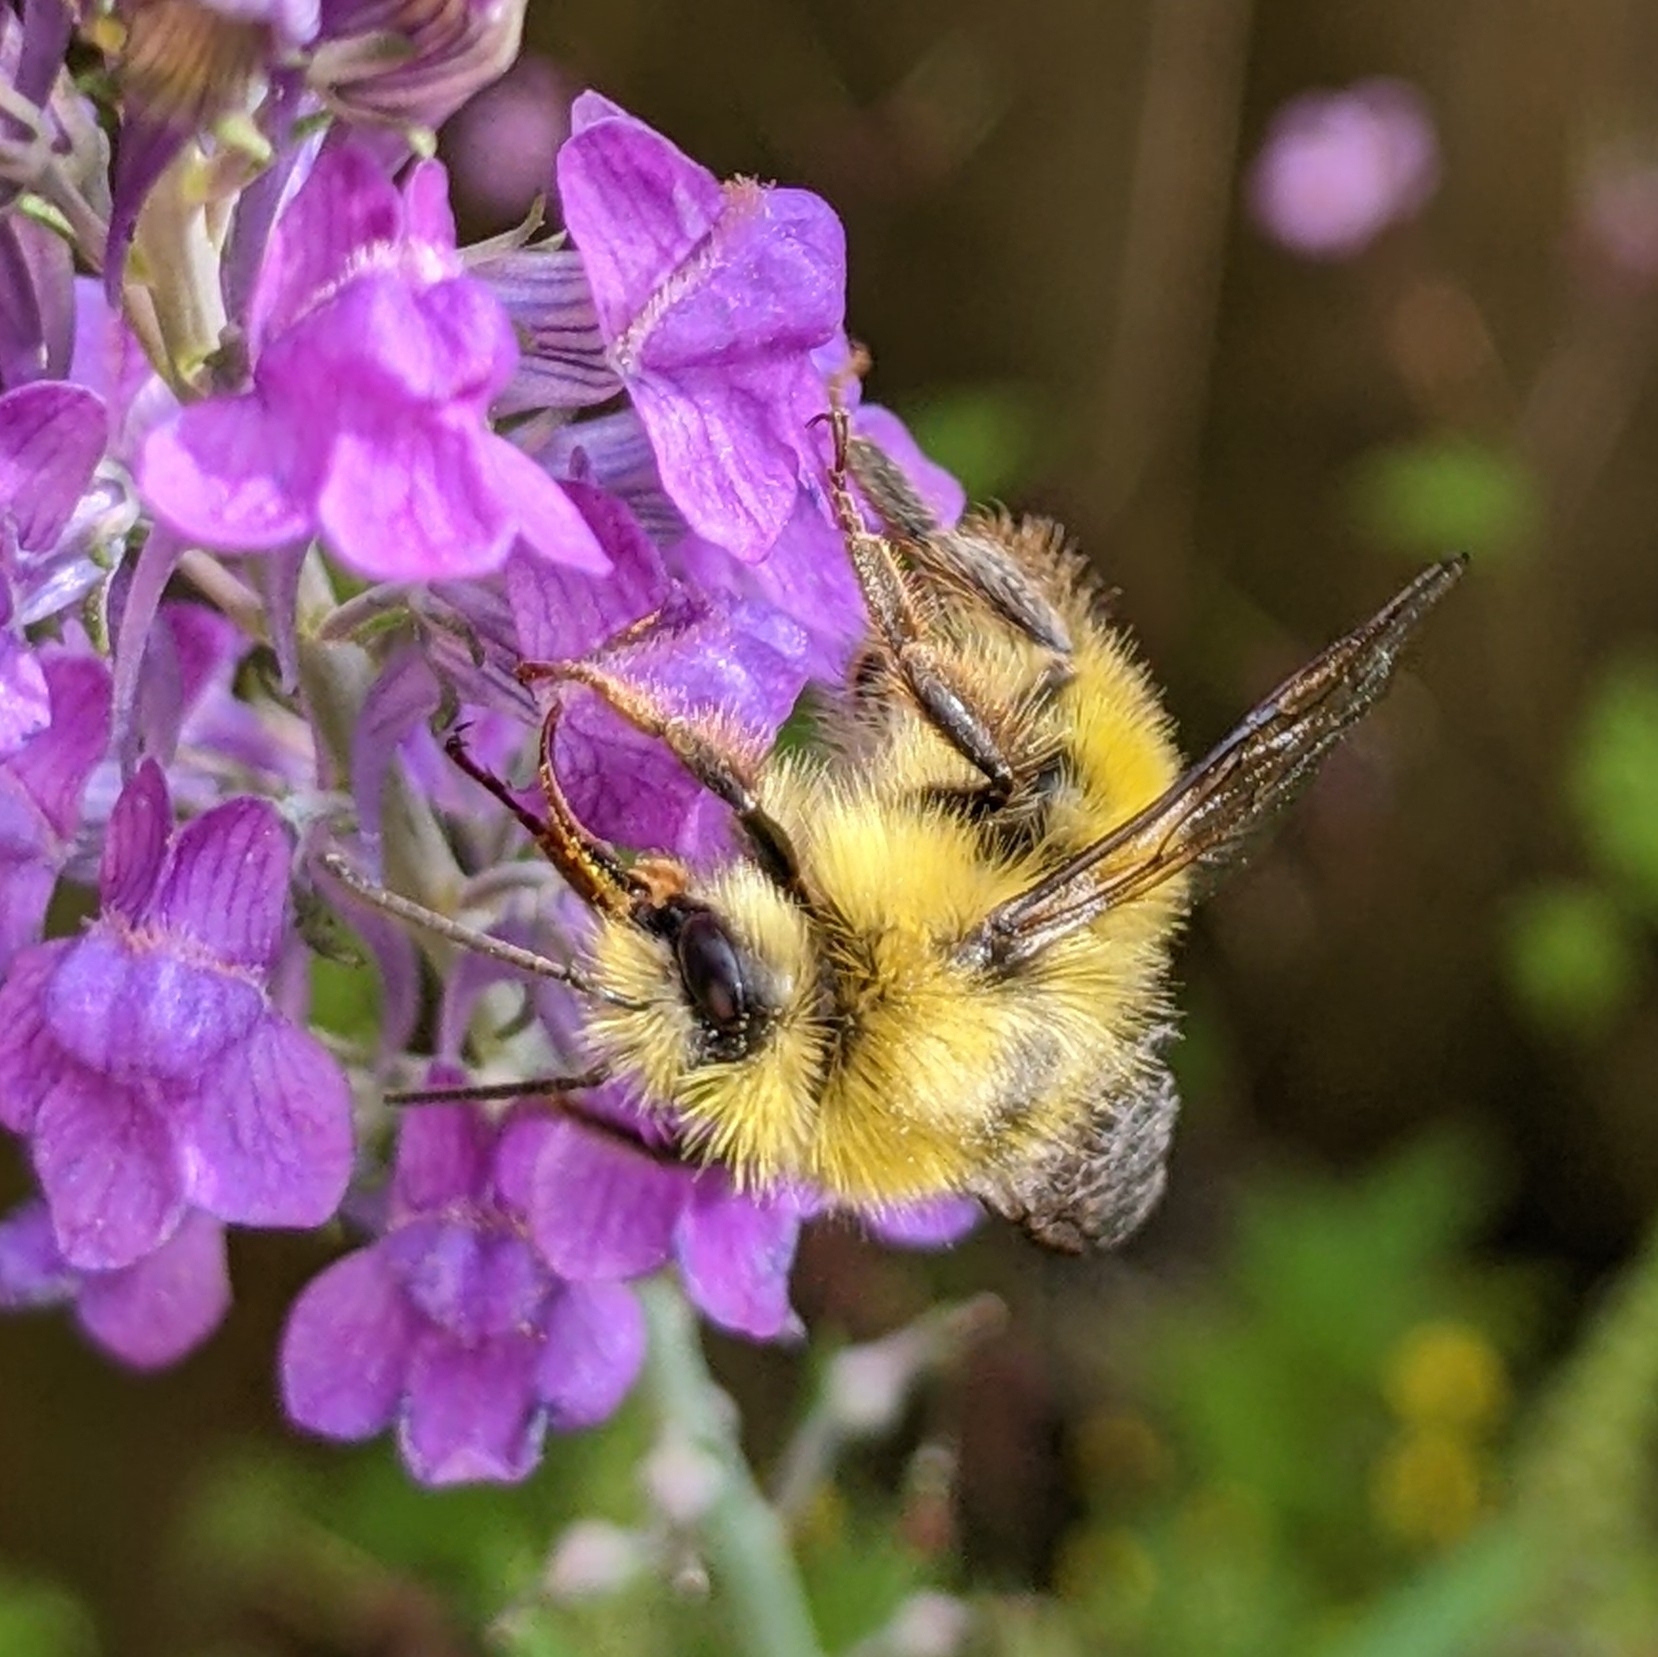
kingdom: Animalia
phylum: Arthropoda
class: Insecta
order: Hymenoptera
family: Apidae
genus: Bombus
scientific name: Bombus flavifrons
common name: Yellow head bumble bee
